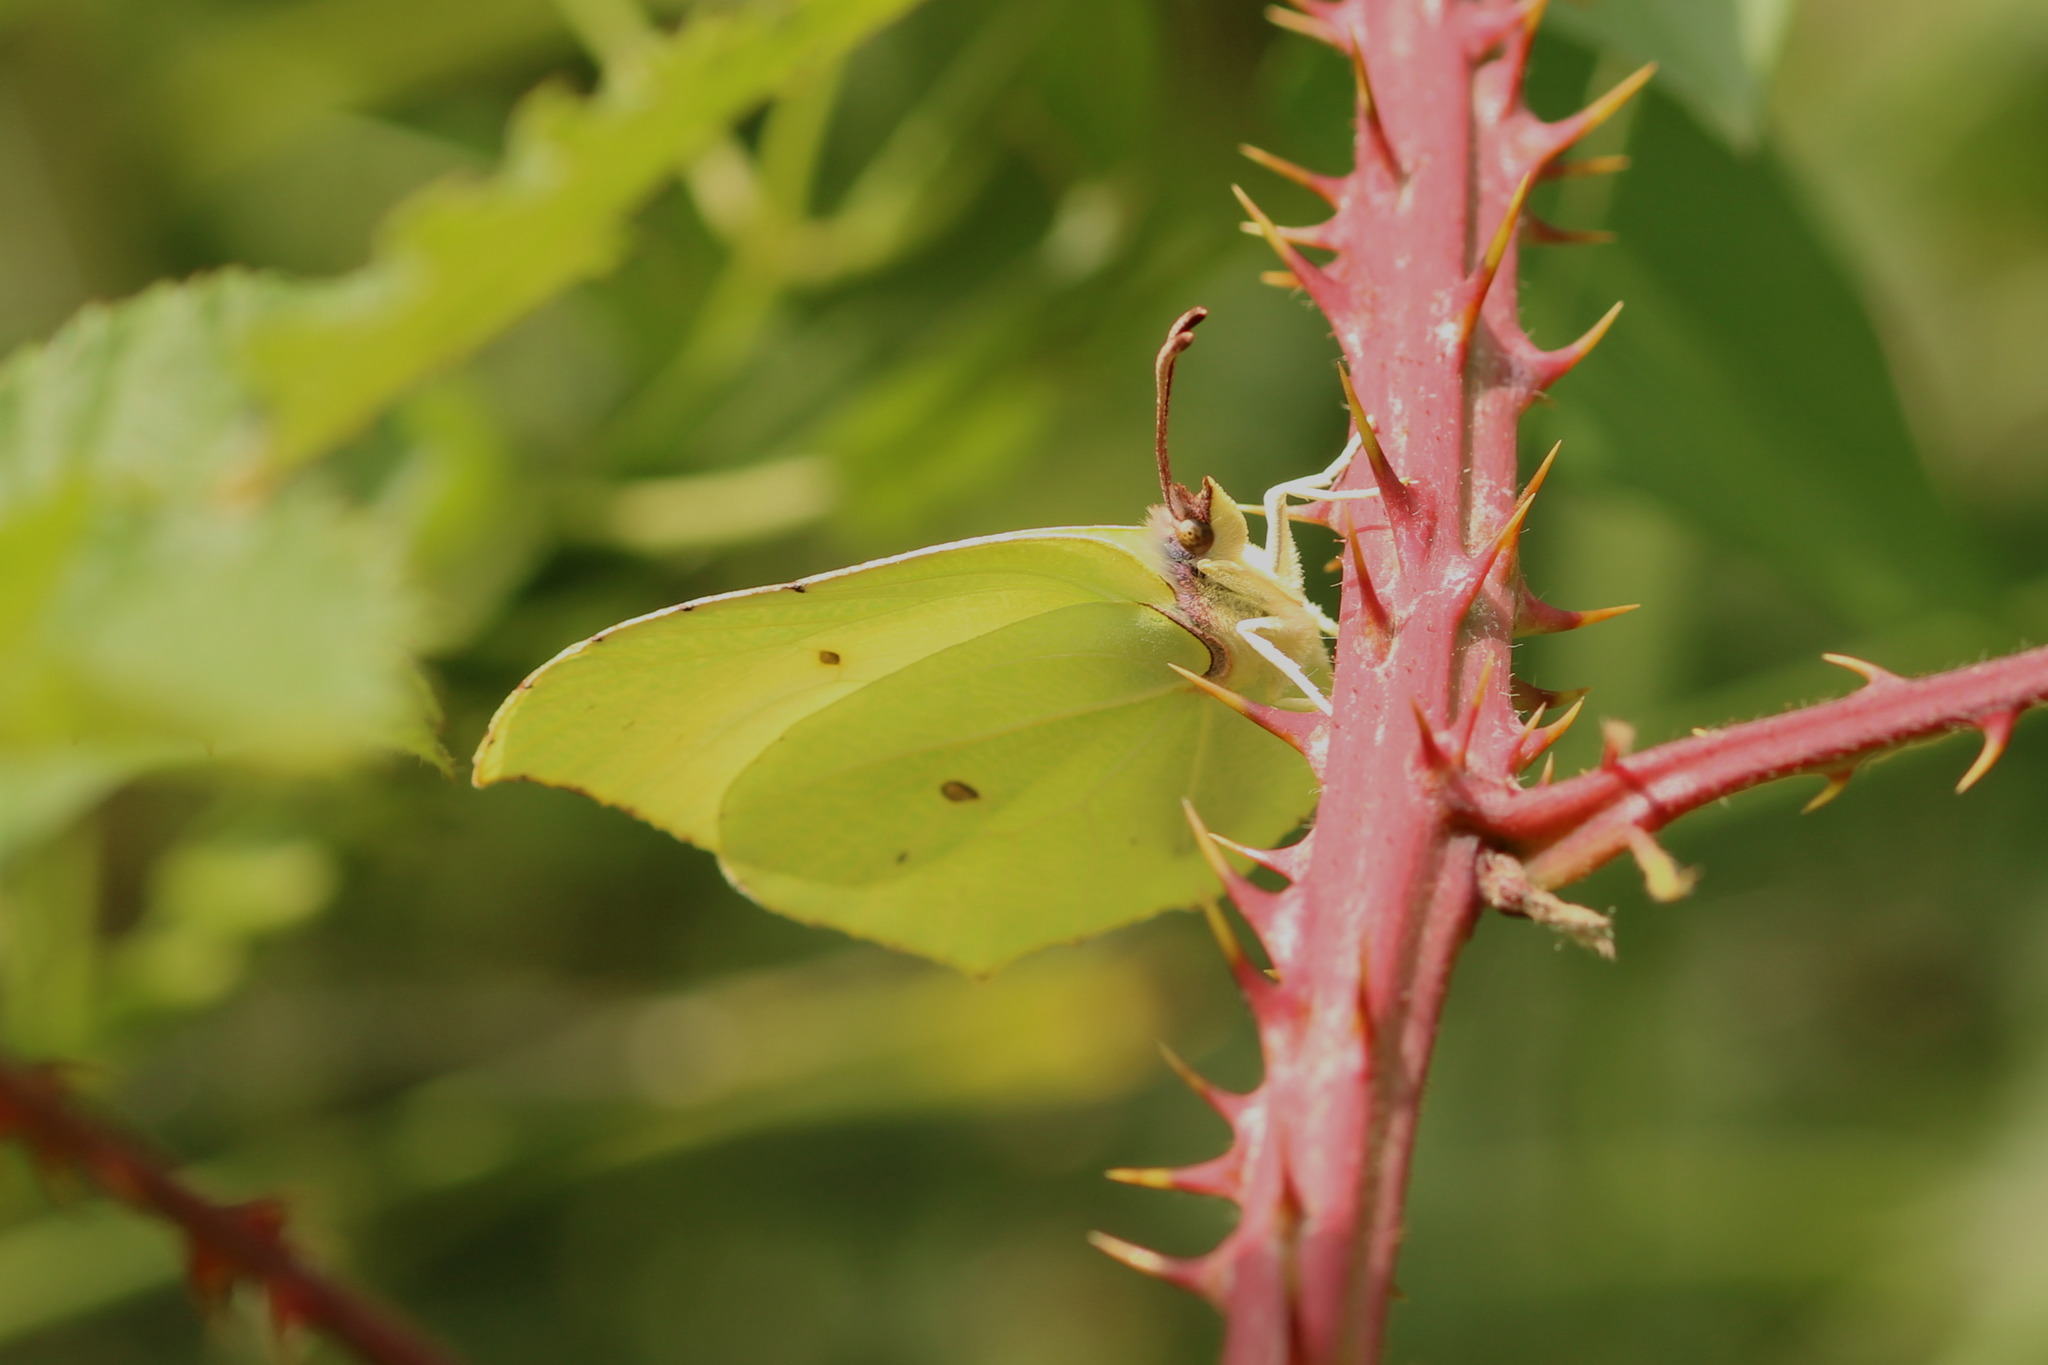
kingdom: Animalia
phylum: Arthropoda
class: Insecta
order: Lepidoptera
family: Pieridae
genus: Gonepteryx
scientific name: Gonepteryx rhamni
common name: Brimstone
